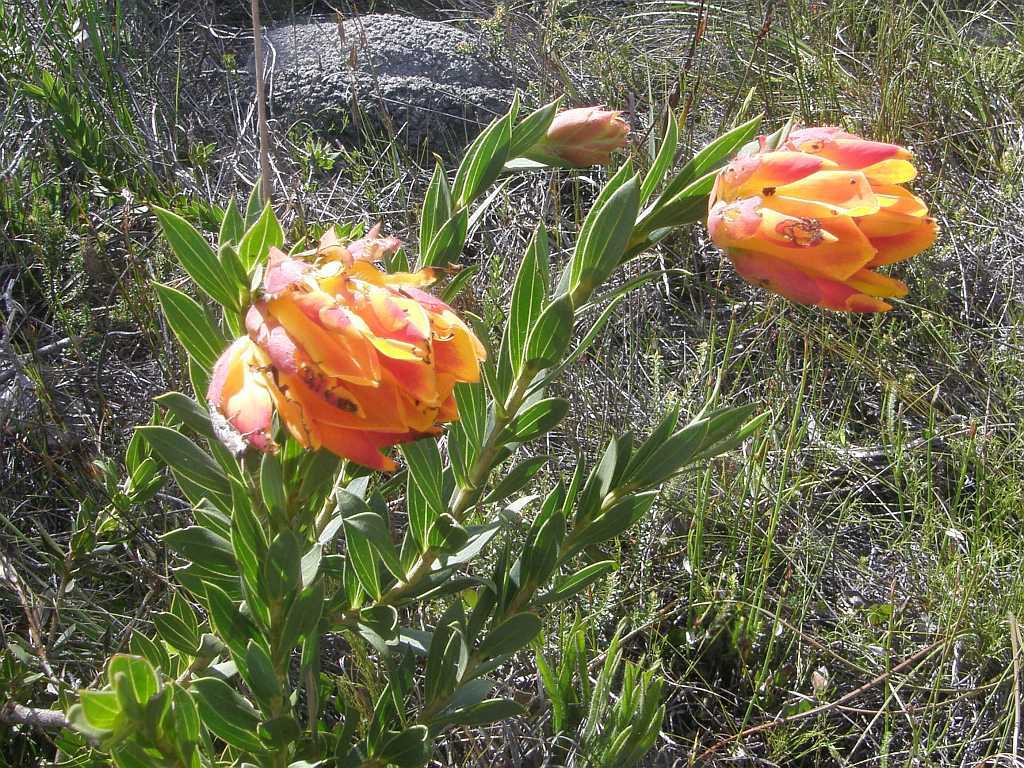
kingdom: Plantae
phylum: Tracheophyta
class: Magnoliopsida
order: Fabales
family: Fabaceae
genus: Liparia
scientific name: Liparia splendens
